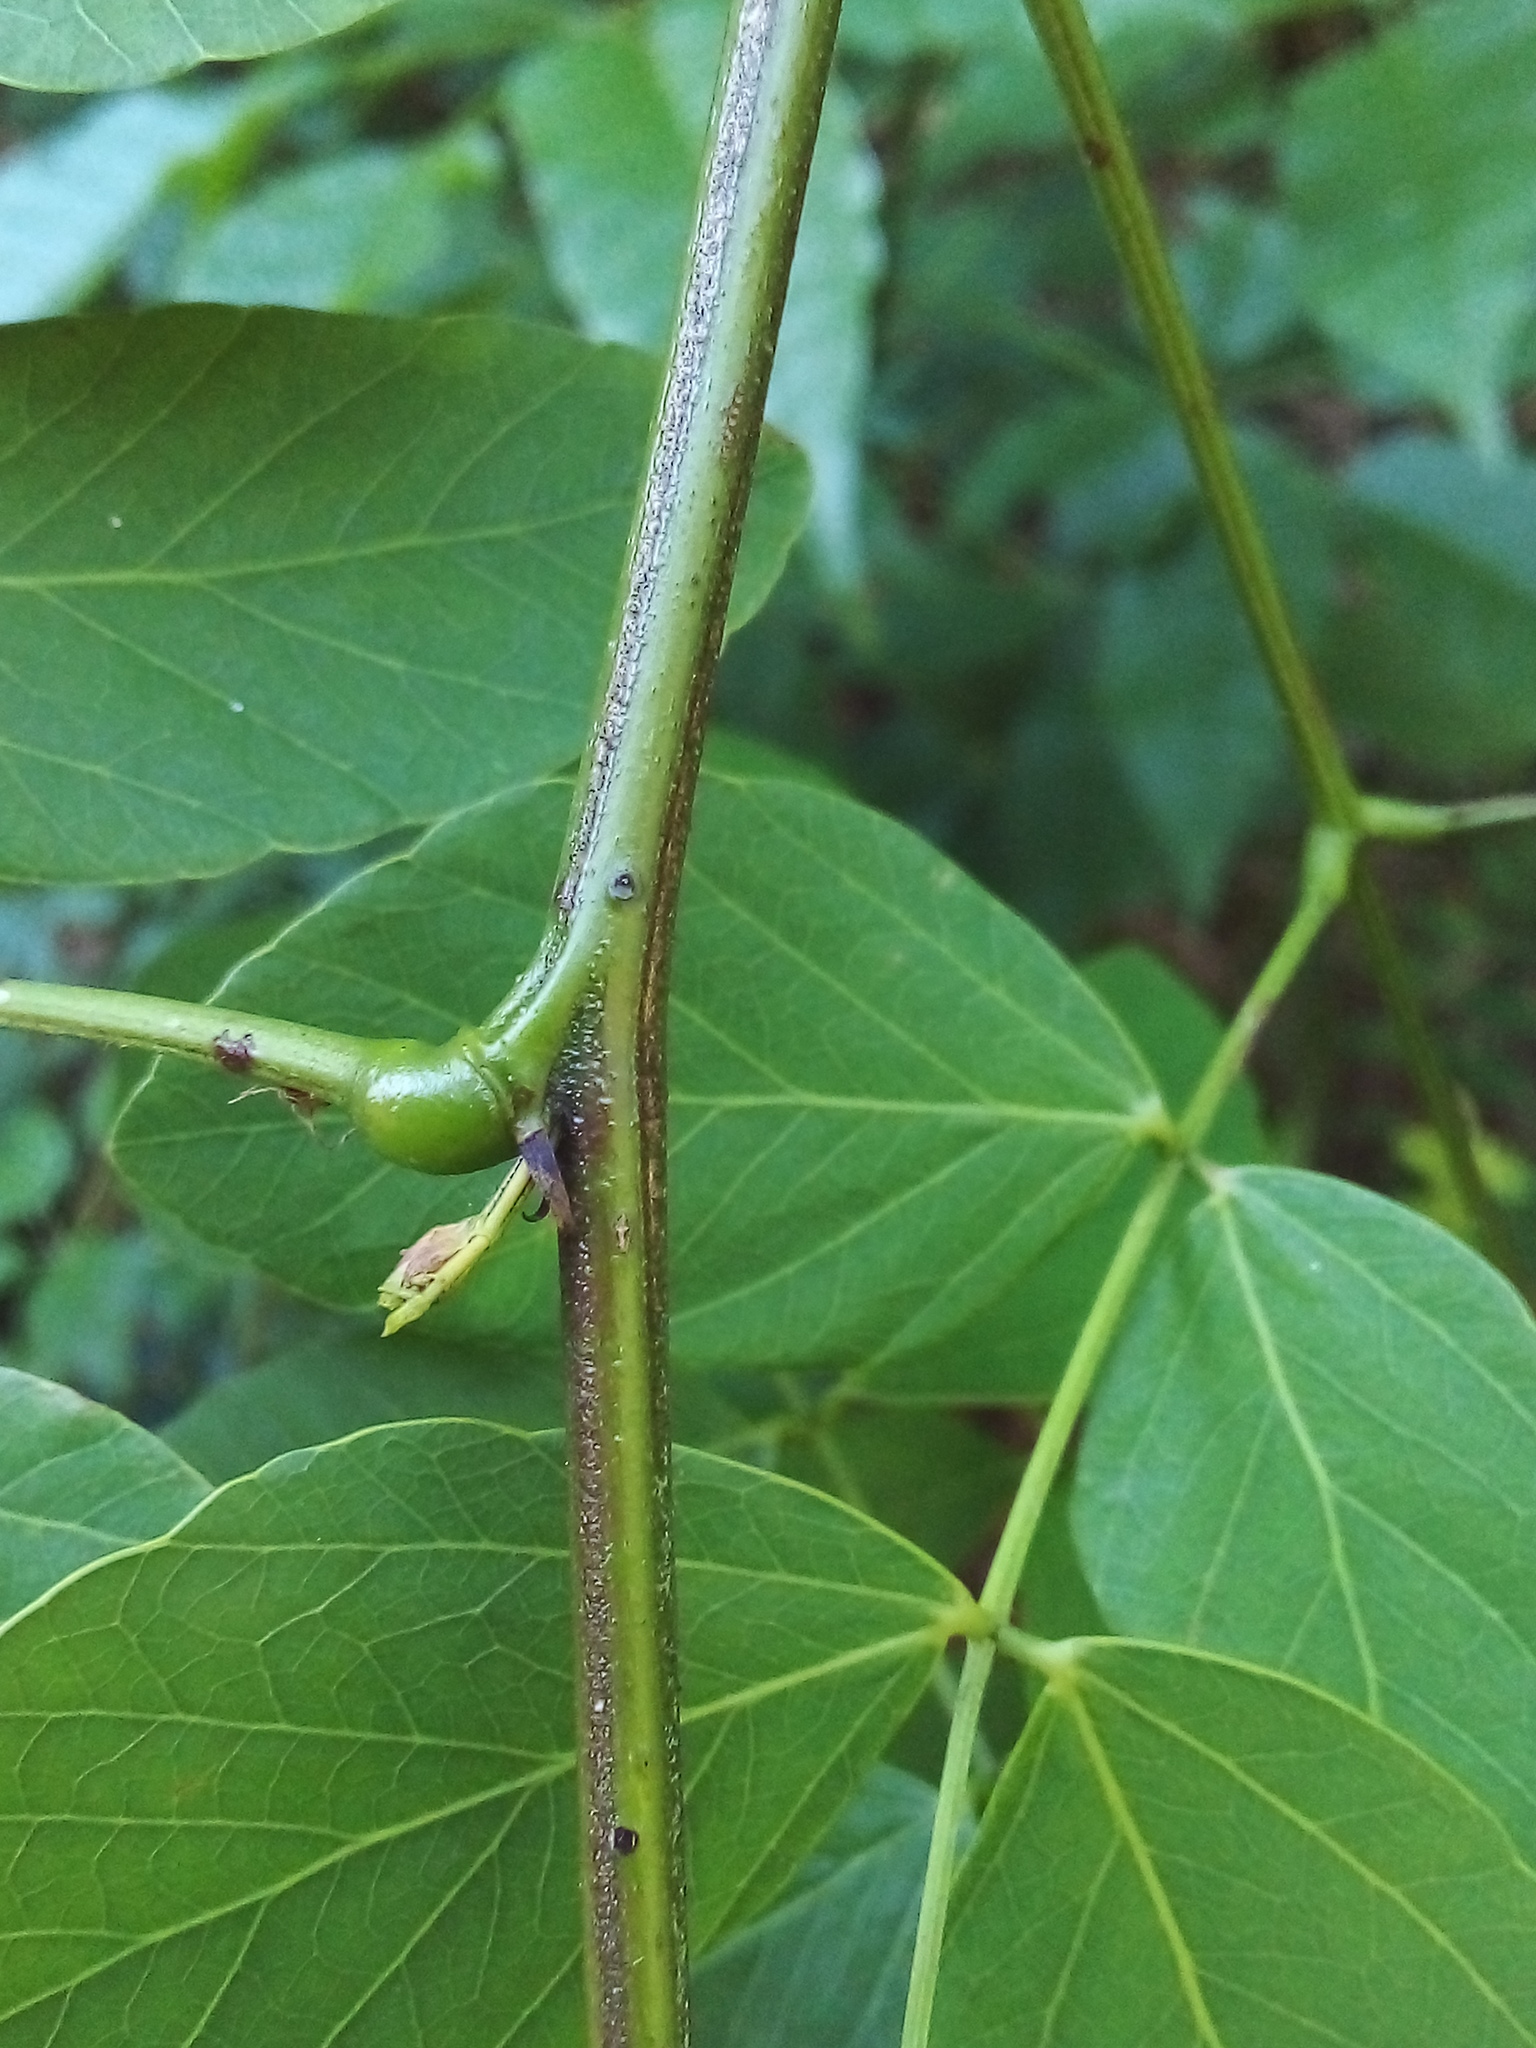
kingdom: Plantae
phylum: Tracheophyta
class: Magnoliopsida
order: Fabales
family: Fabaceae
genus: Mimosa
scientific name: Mimosa caesalpiniifolia
